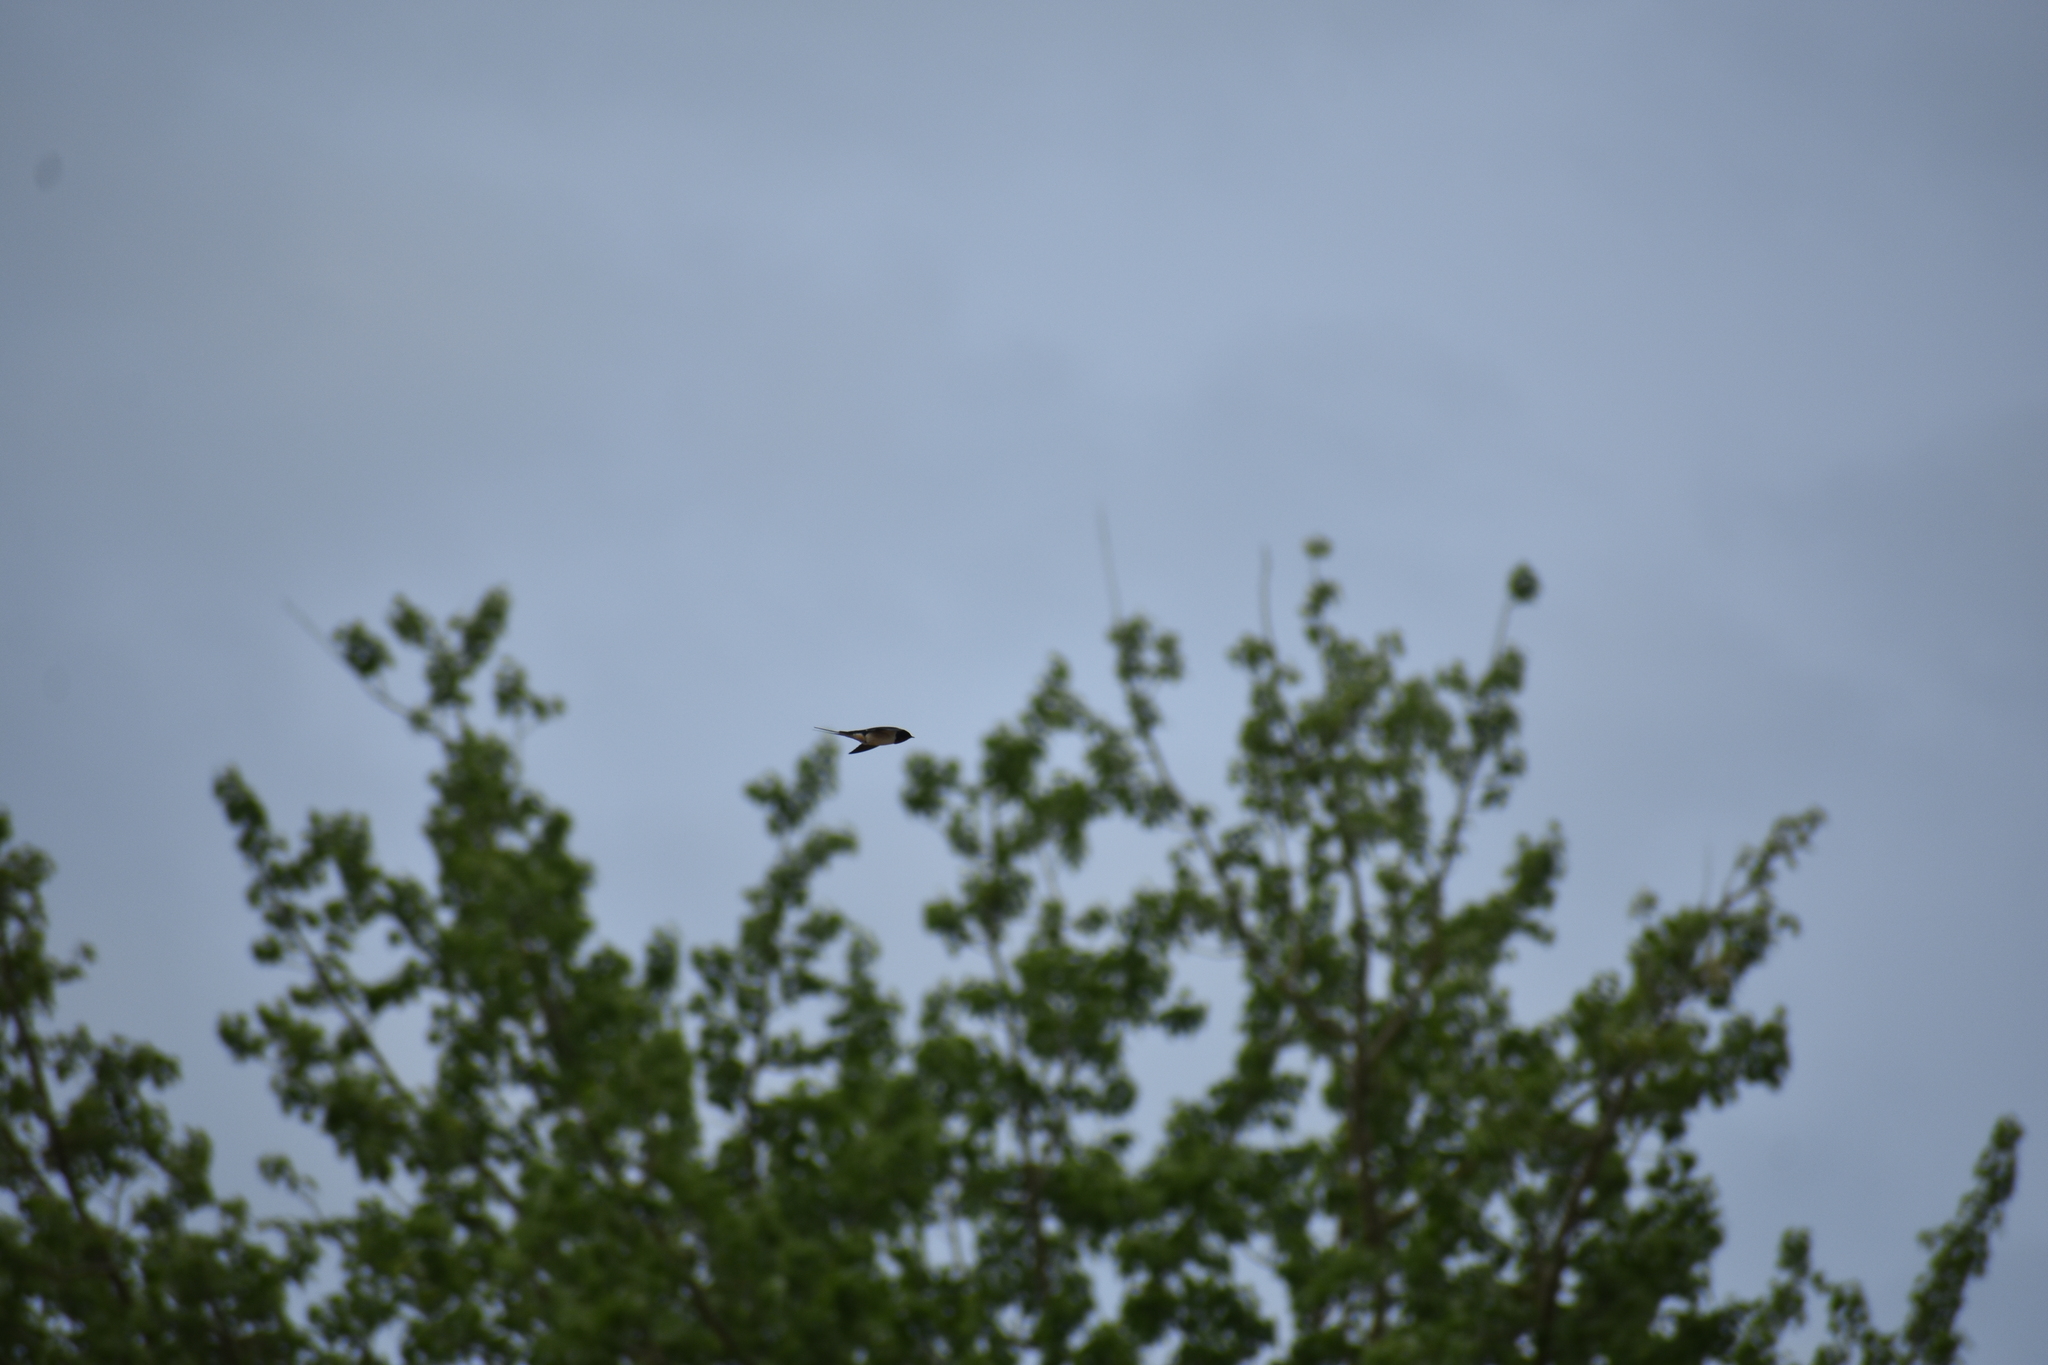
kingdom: Animalia
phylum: Chordata
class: Aves
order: Passeriformes
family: Hirundinidae
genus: Hirundo
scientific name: Hirundo rustica
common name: Barn swallow
